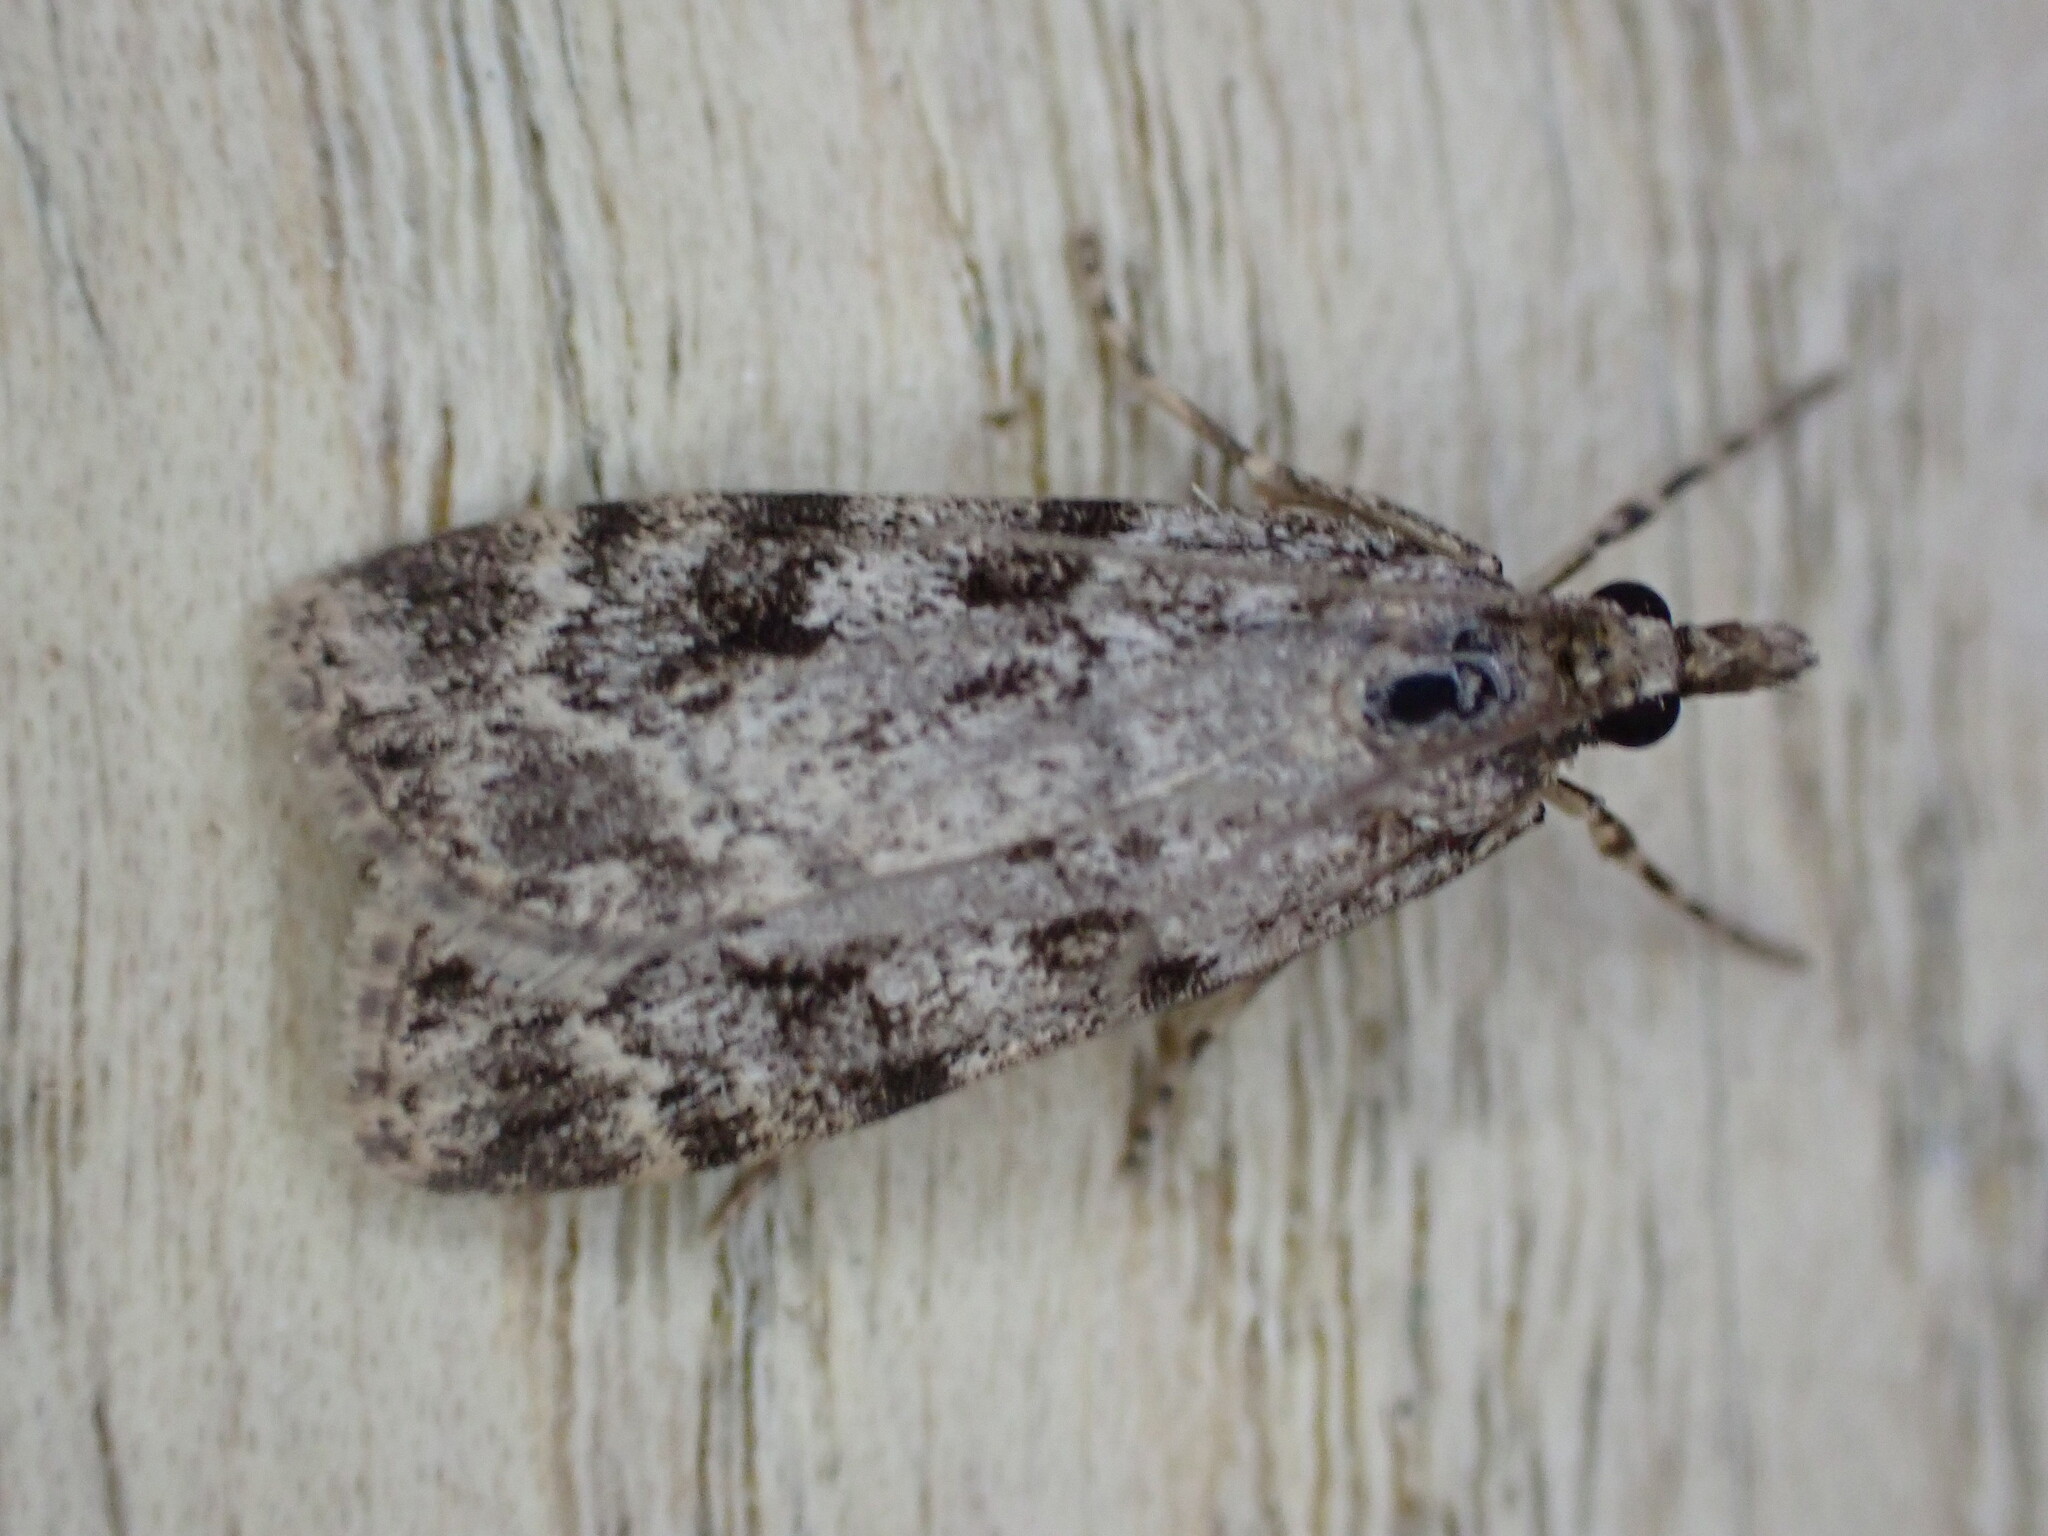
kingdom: Animalia
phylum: Arthropoda
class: Insecta
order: Lepidoptera
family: Crambidae
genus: Scoparia
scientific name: Scoparia ambigualis
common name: Common grey
